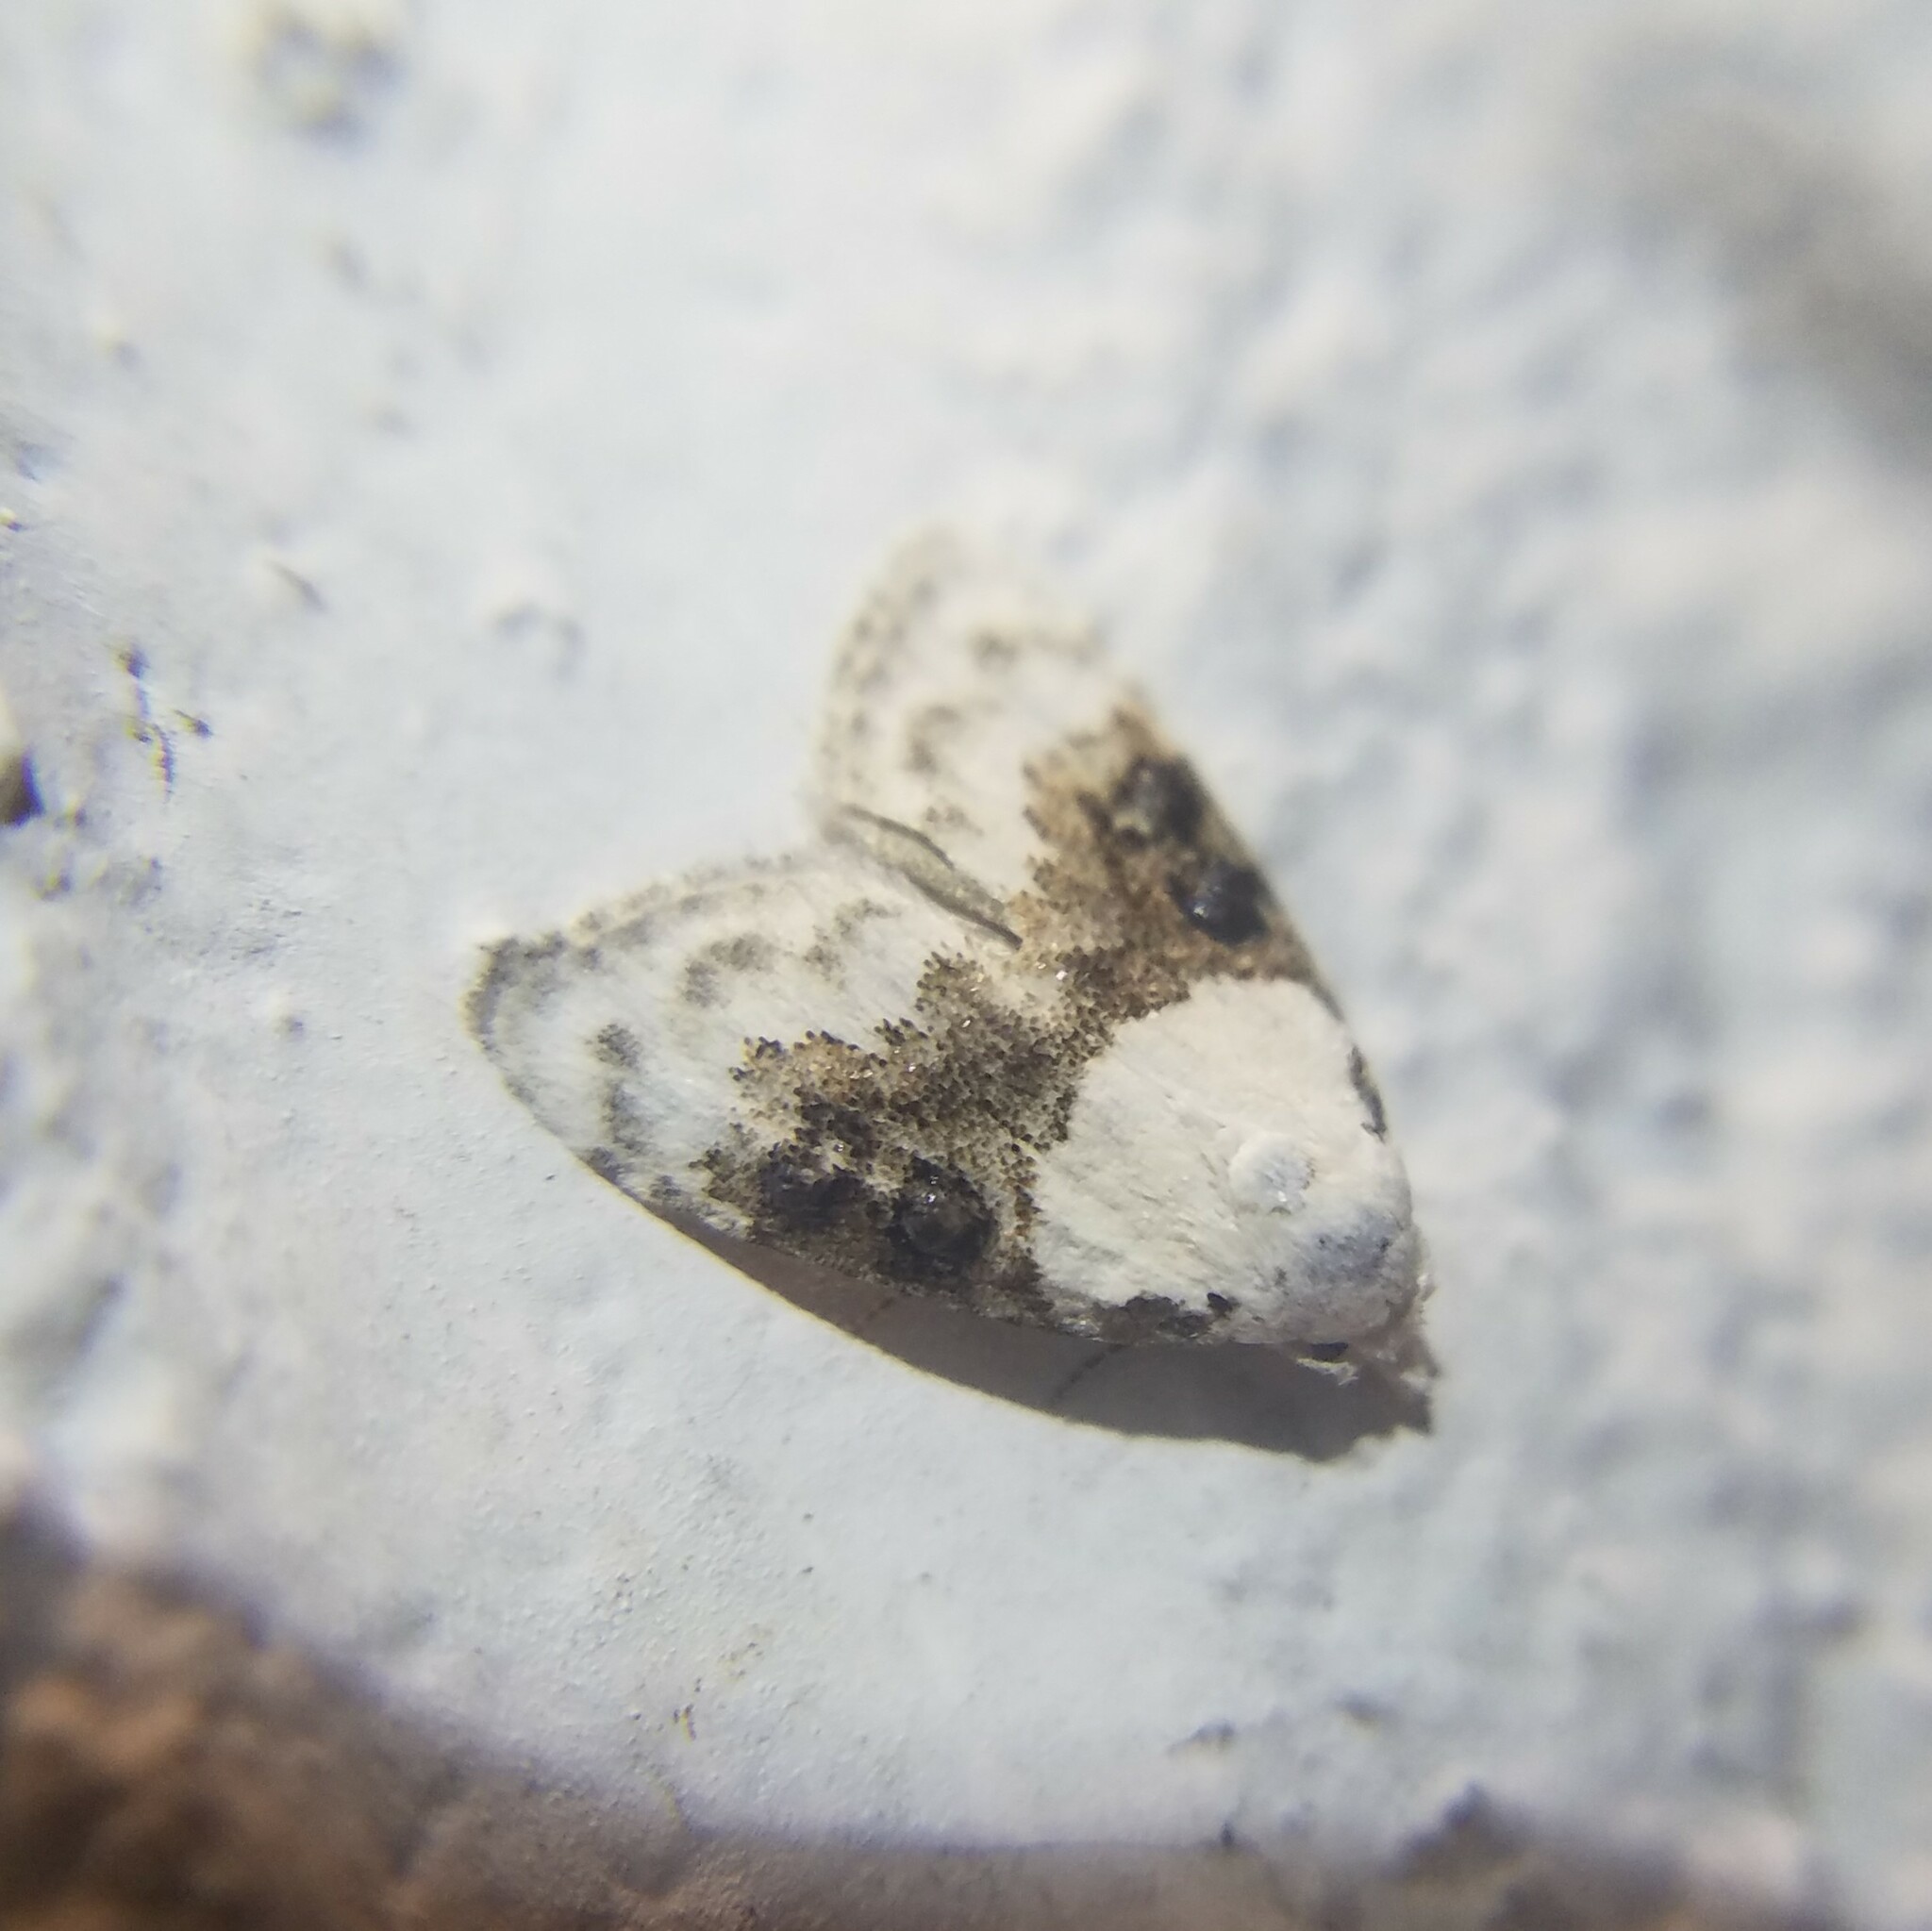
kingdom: Animalia
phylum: Arthropoda
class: Insecta
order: Lepidoptera
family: Nolidae
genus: Nola
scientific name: Nola pustulata
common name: Sharp-blotched nola moth
